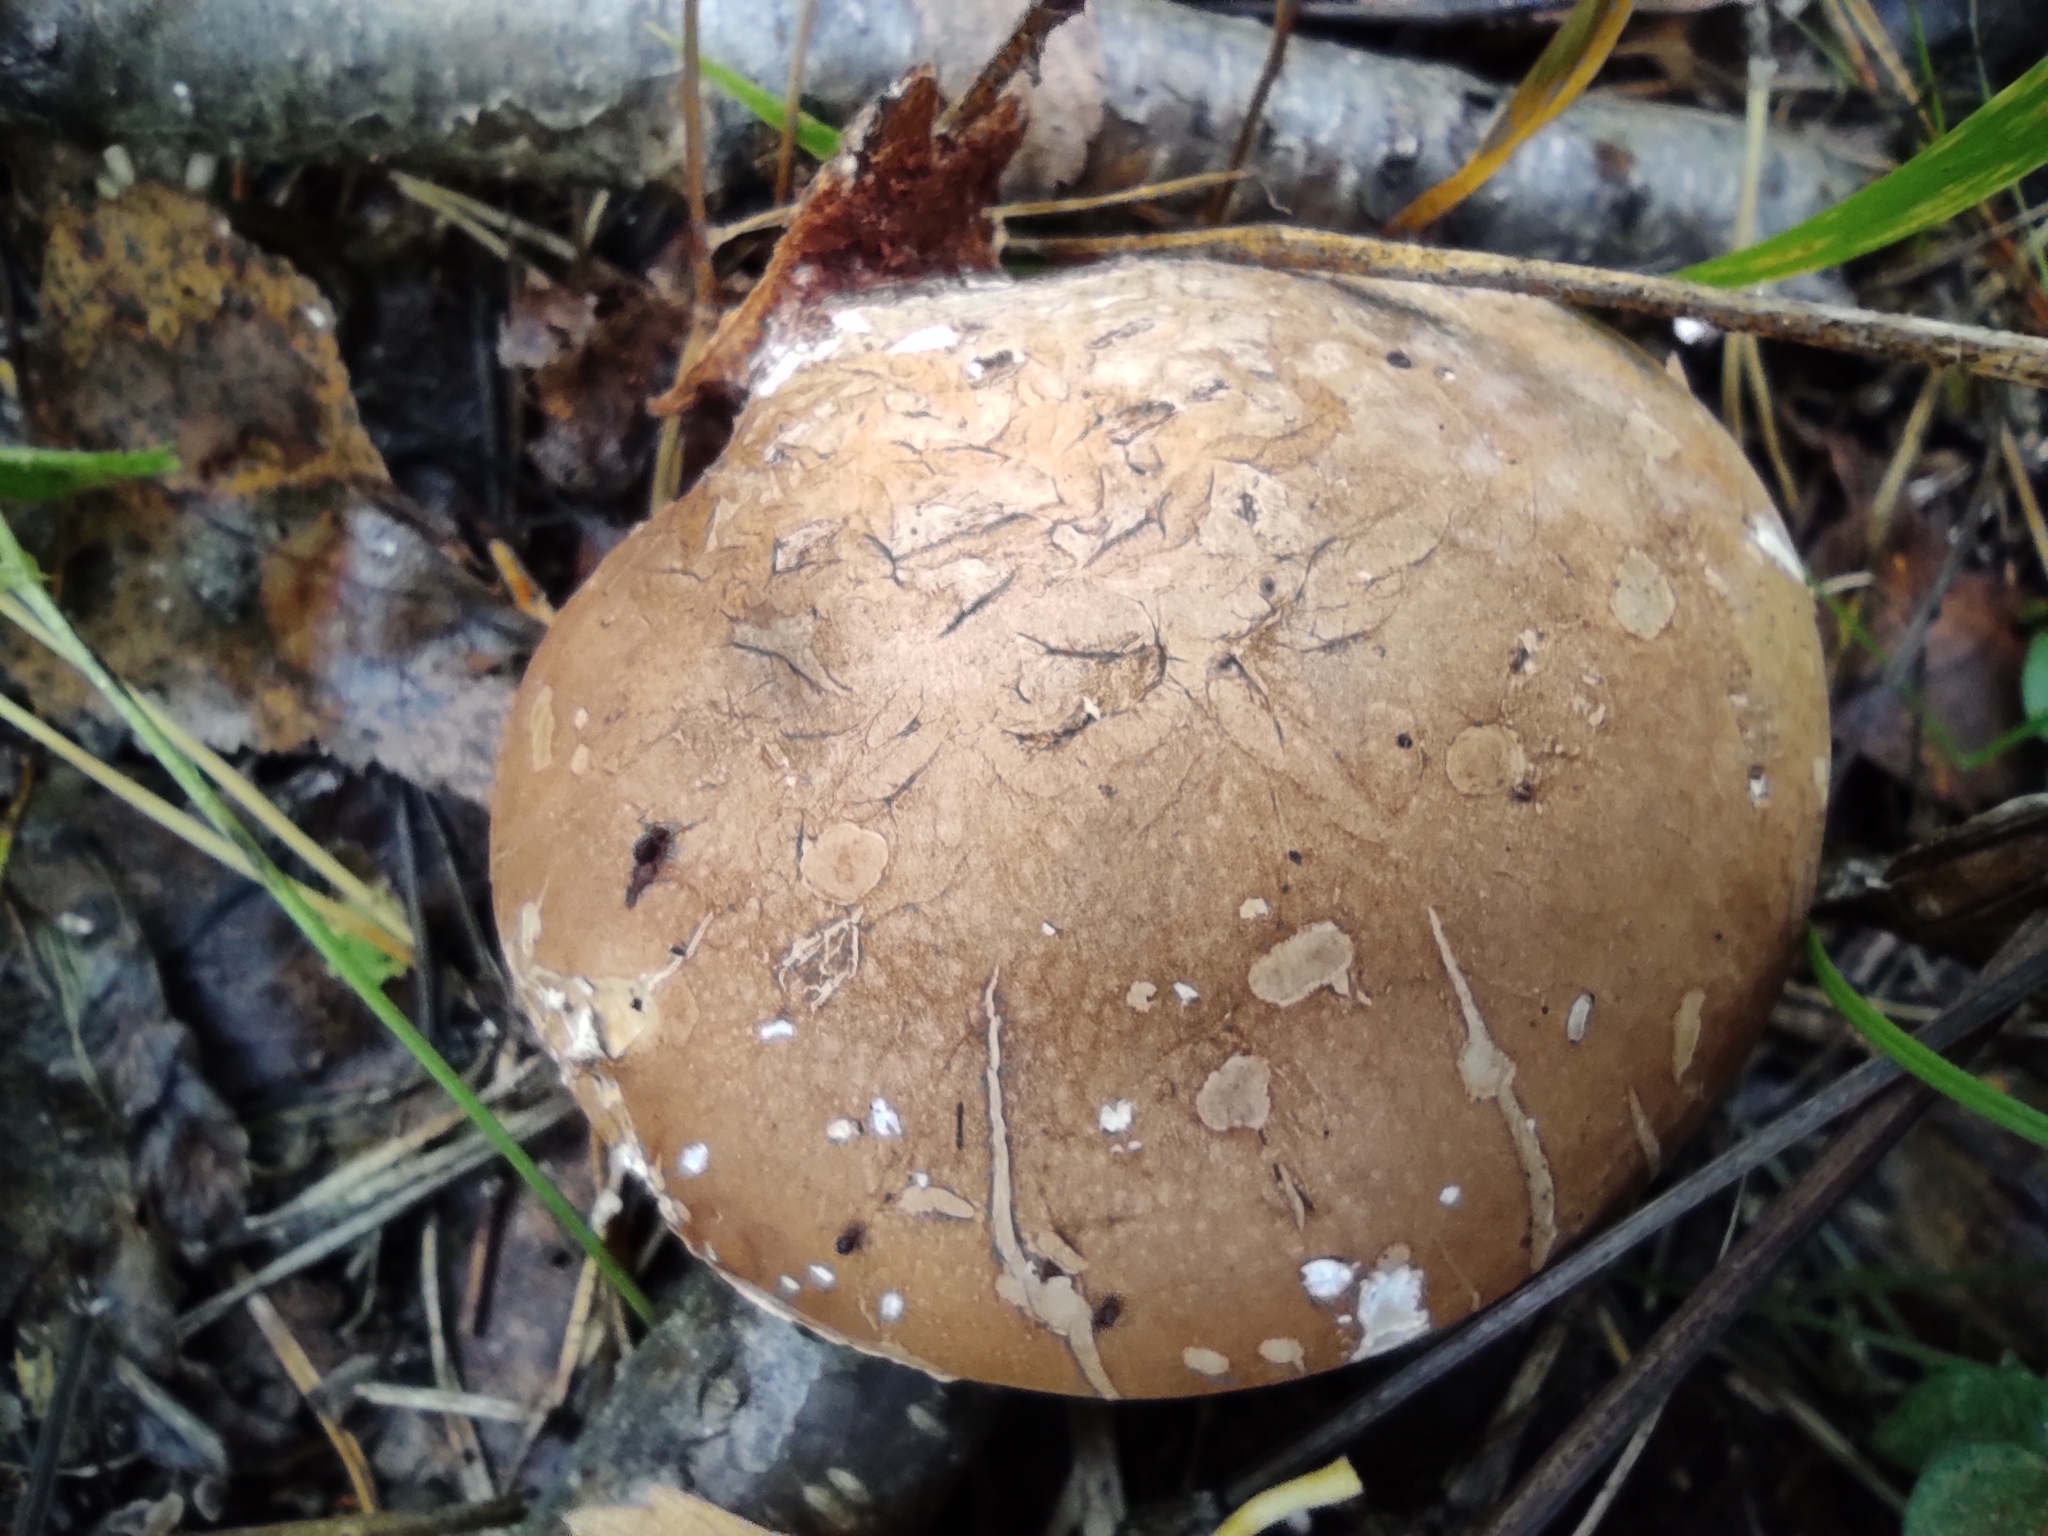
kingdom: Fungi
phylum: Basidiomycota
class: Agaricomycetes
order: Polyporales
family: Fomitopsidaceae
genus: Fomitopsis
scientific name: Fomitopsis betulina
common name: Birch polypore
